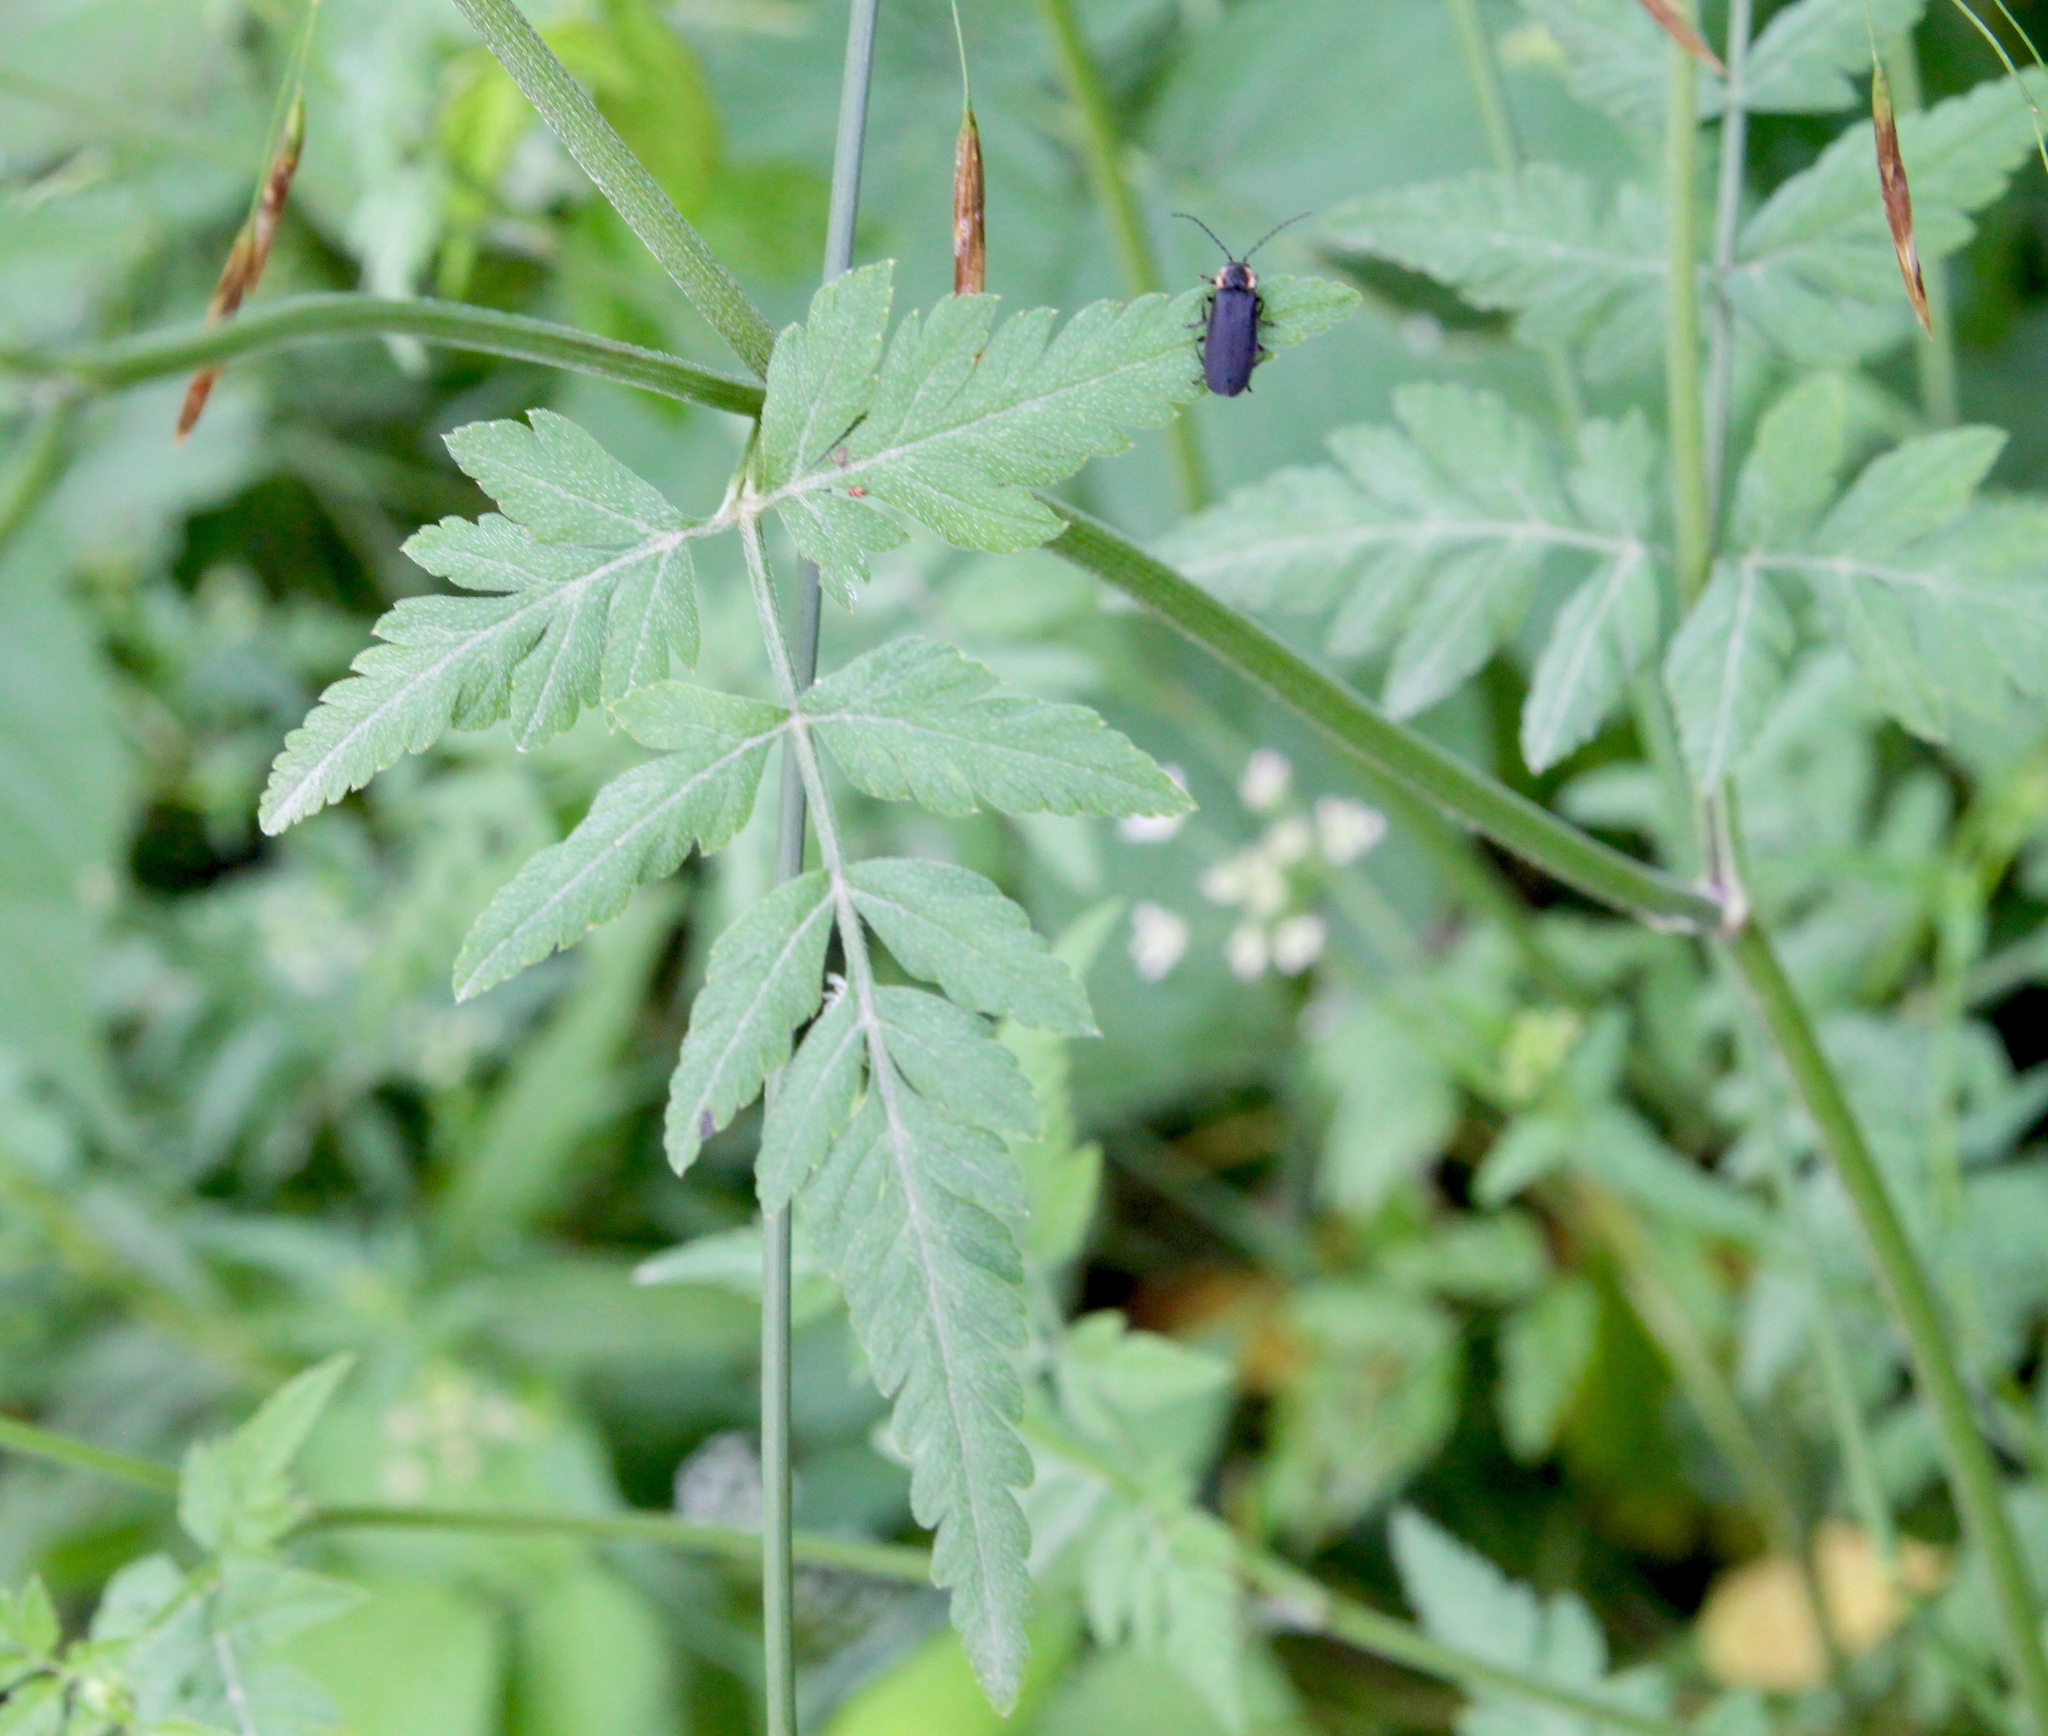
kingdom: Plantae
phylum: Tracheophyta
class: Magnoliopsida
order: Apiales
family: Apiaceae
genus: Torilis
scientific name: Torilis arvensis
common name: Spreading hedge-parsley
